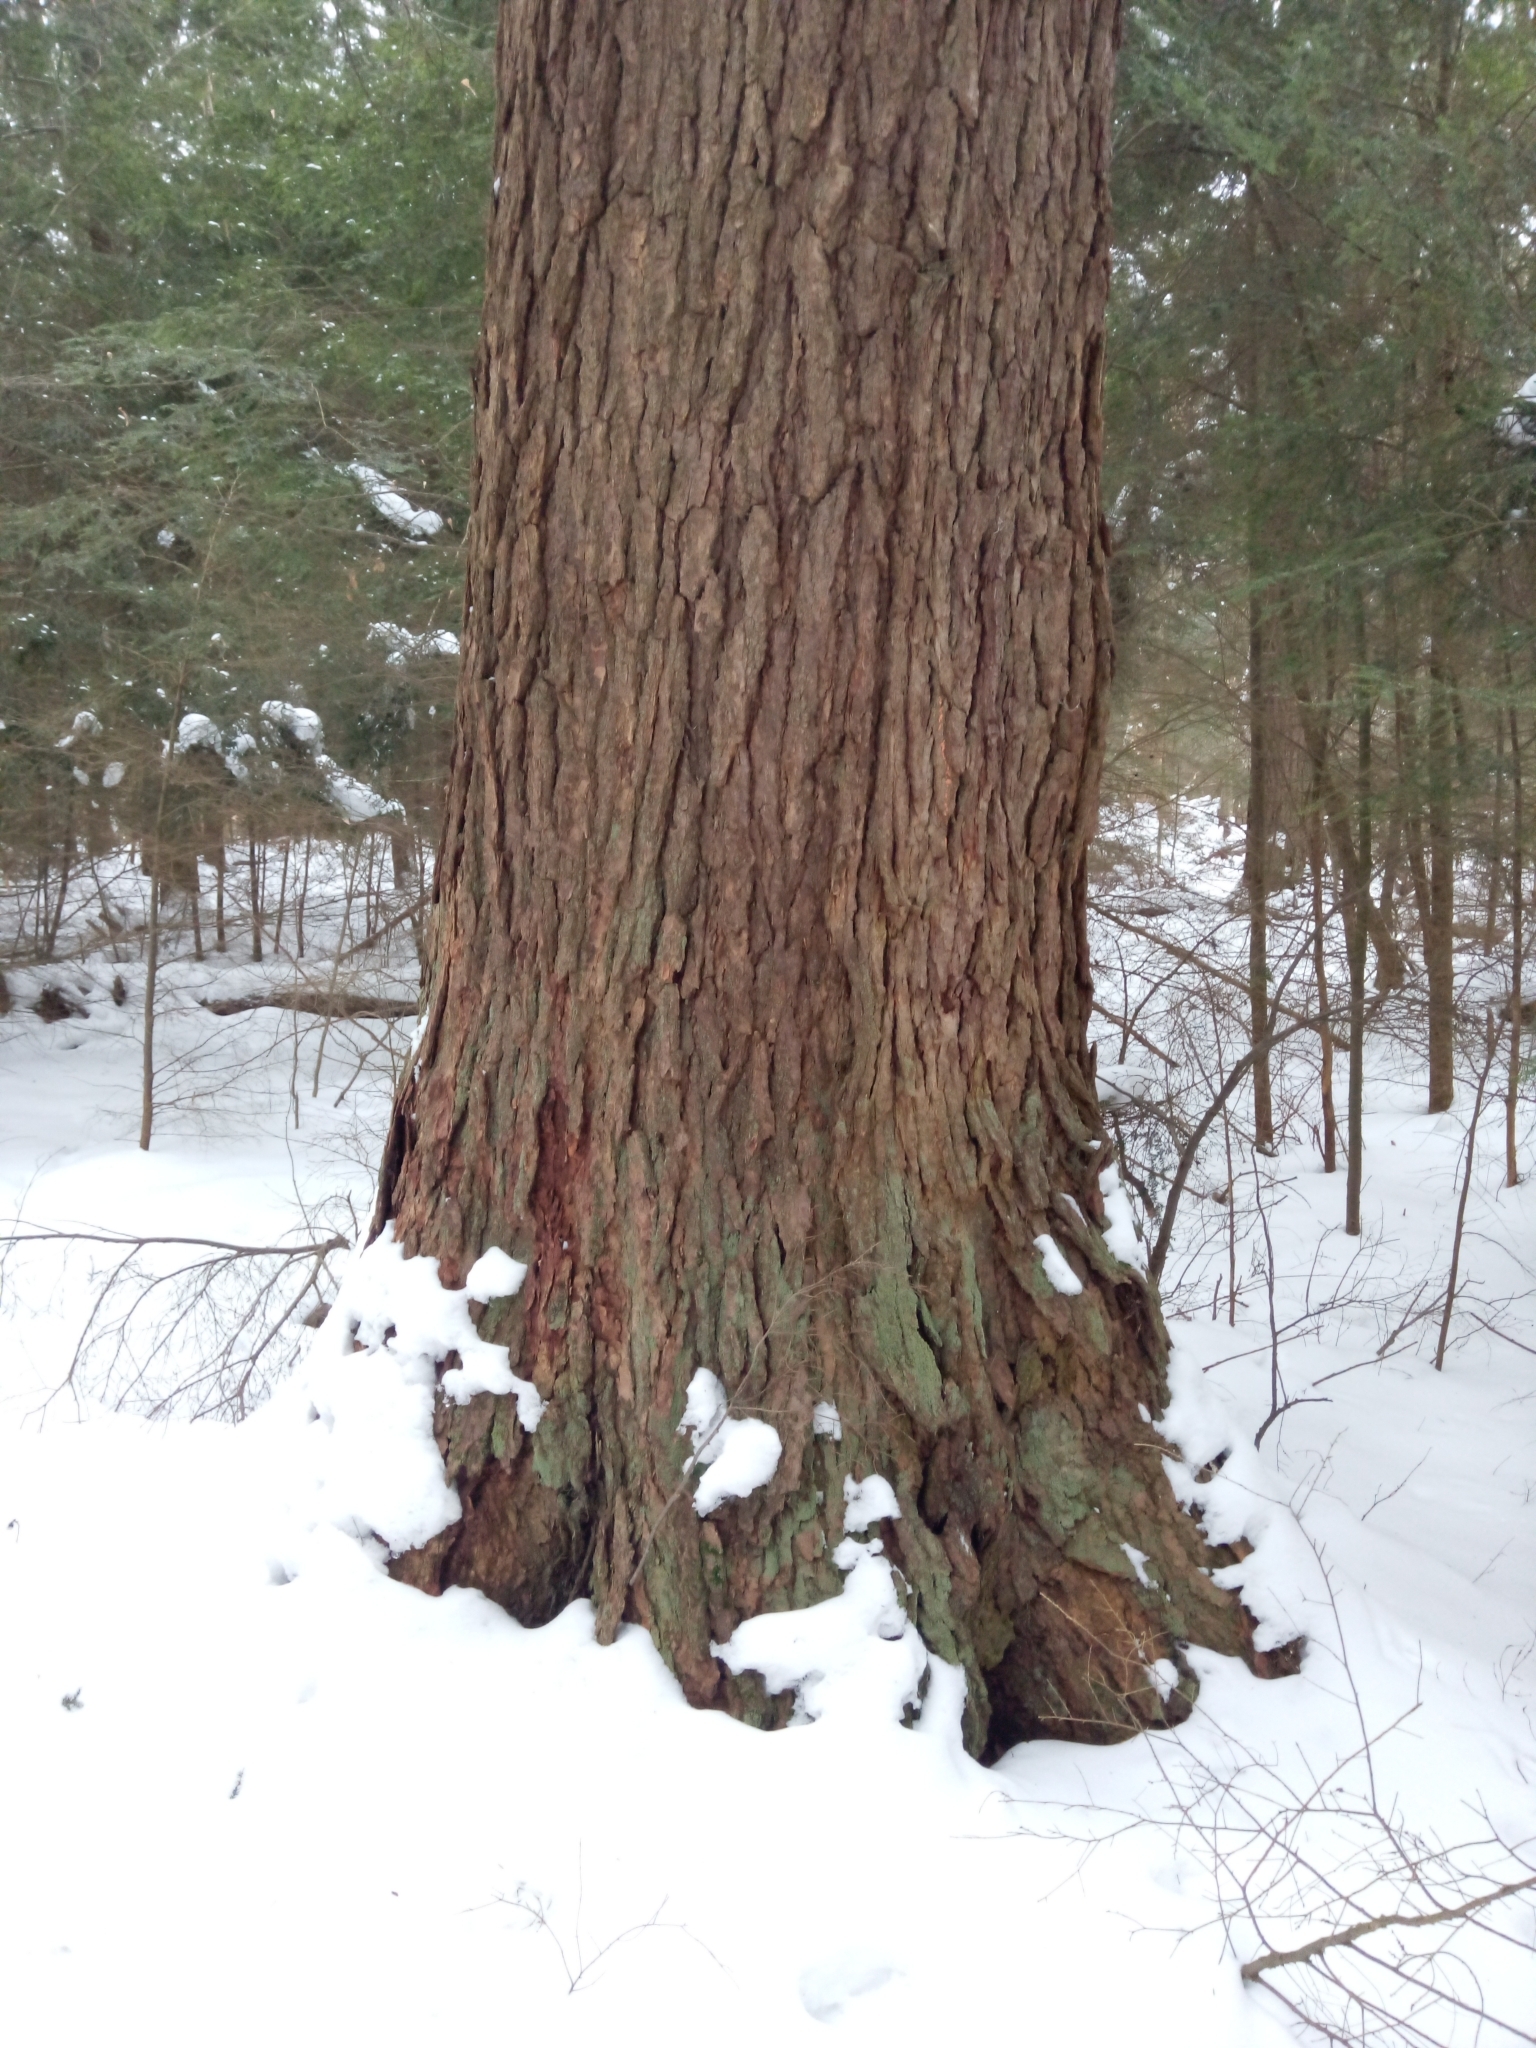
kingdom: Plantae
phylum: Tracheophyta
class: Pinopsida
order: Pinales
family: Pinaceae
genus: Tsuga
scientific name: Tsuga canadensis
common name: Eastern hemlock
